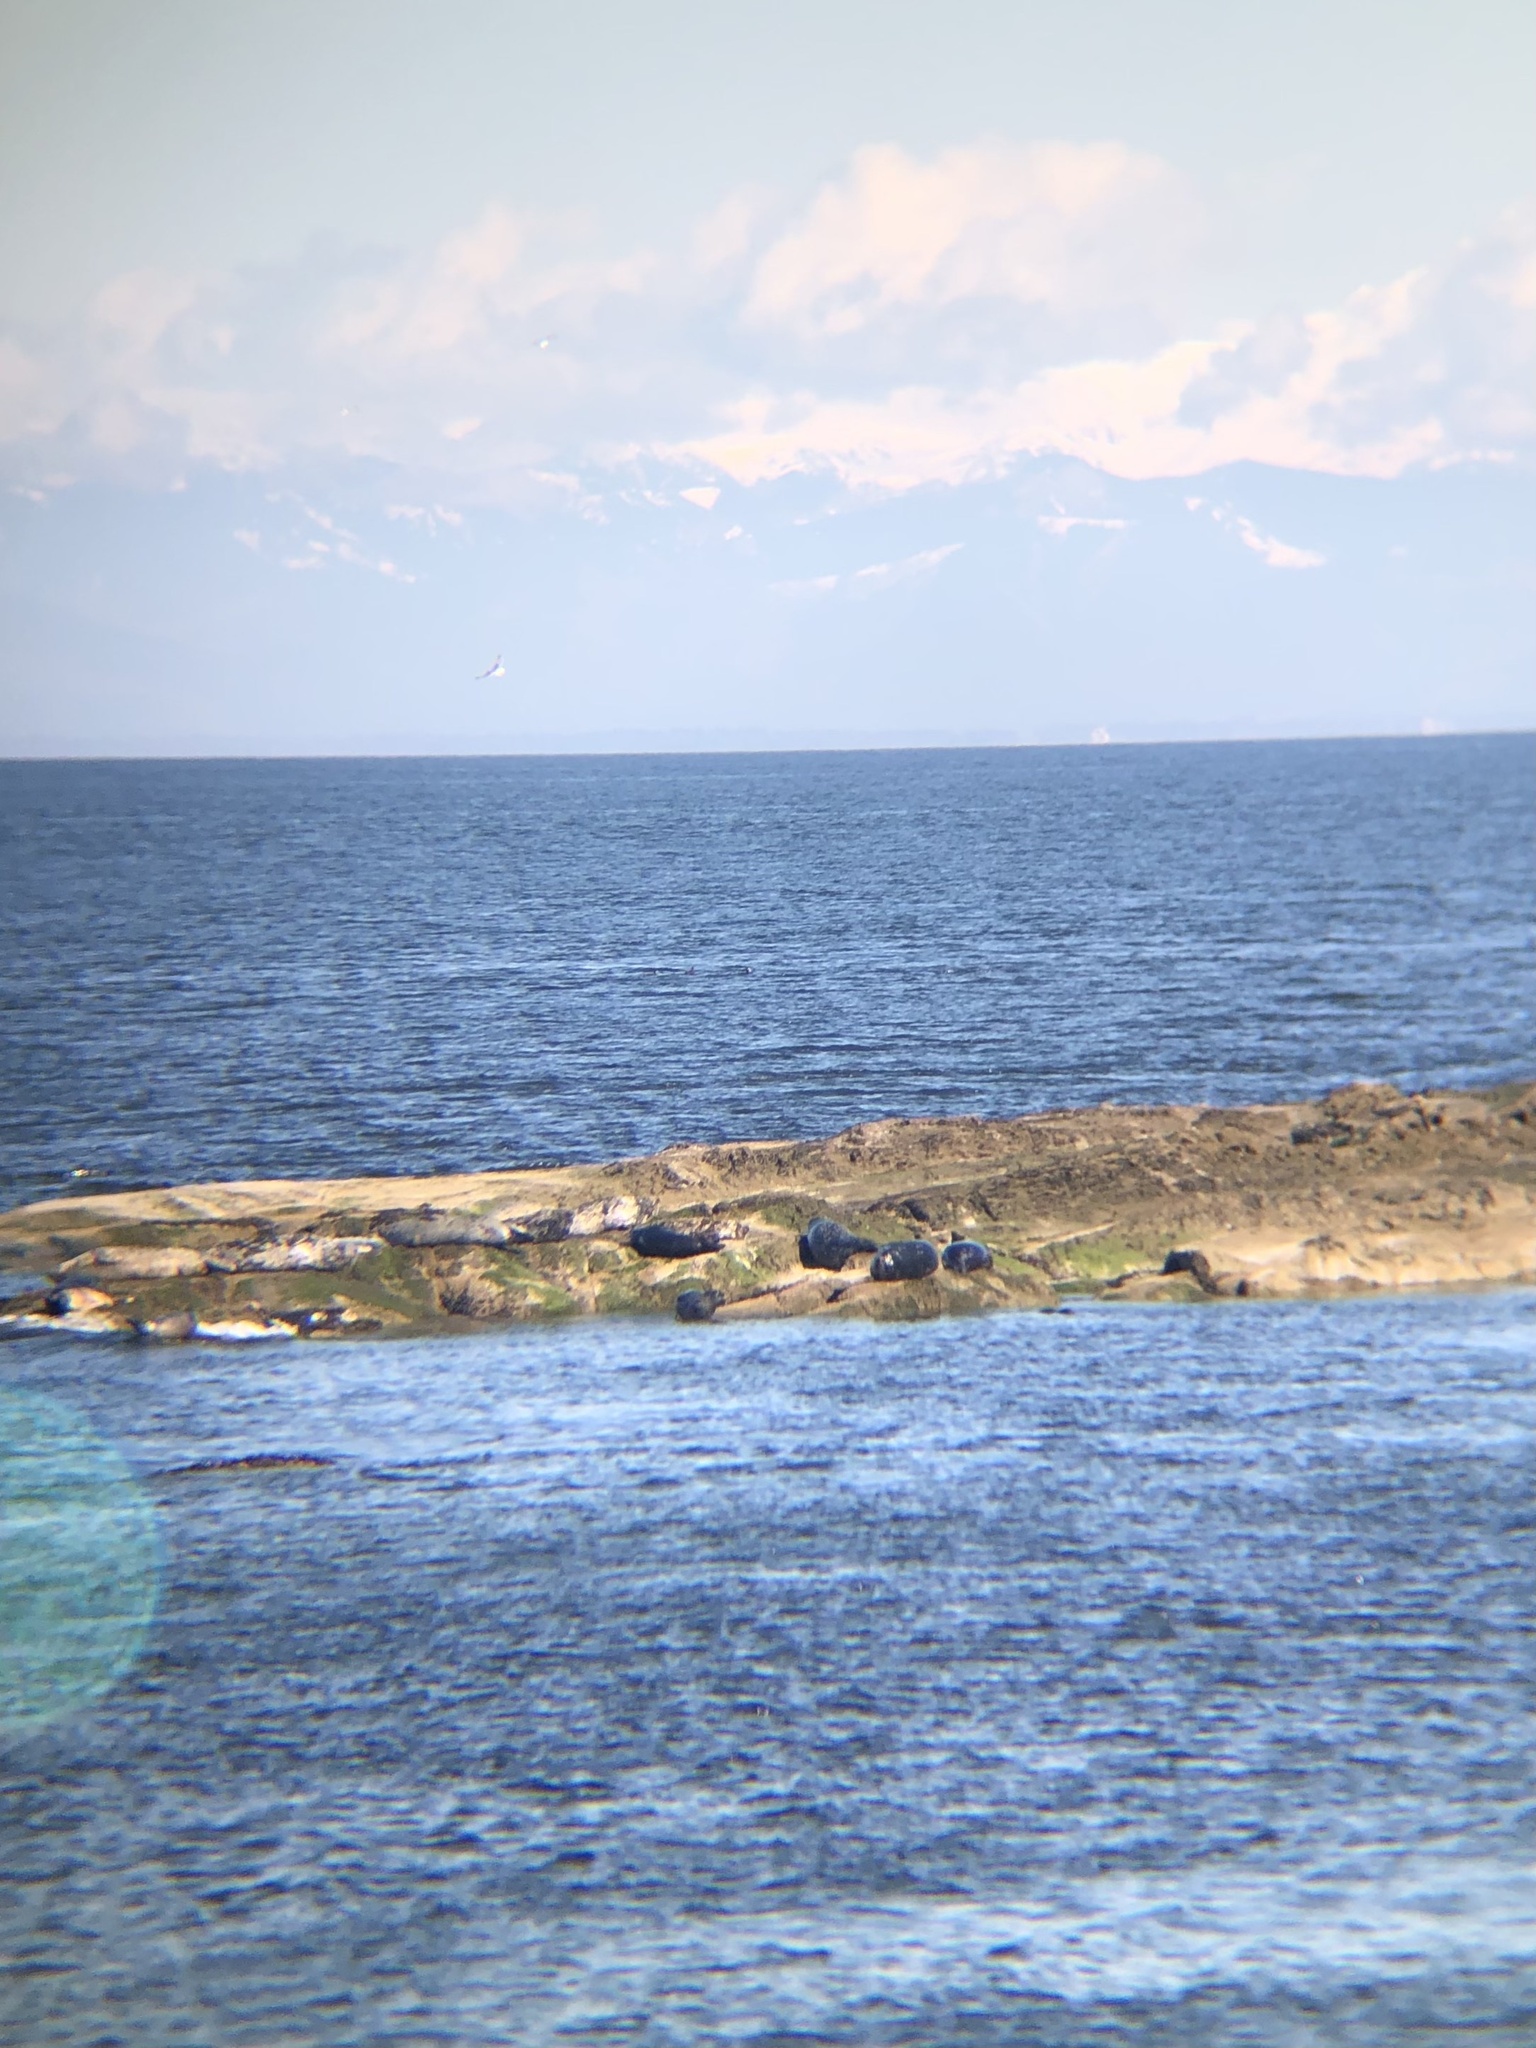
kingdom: Animalia
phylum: Chordata
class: Mammalia
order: Carnivora
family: Phocidae
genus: Phoca
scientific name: Phoca vitulina
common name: Harbor seal
